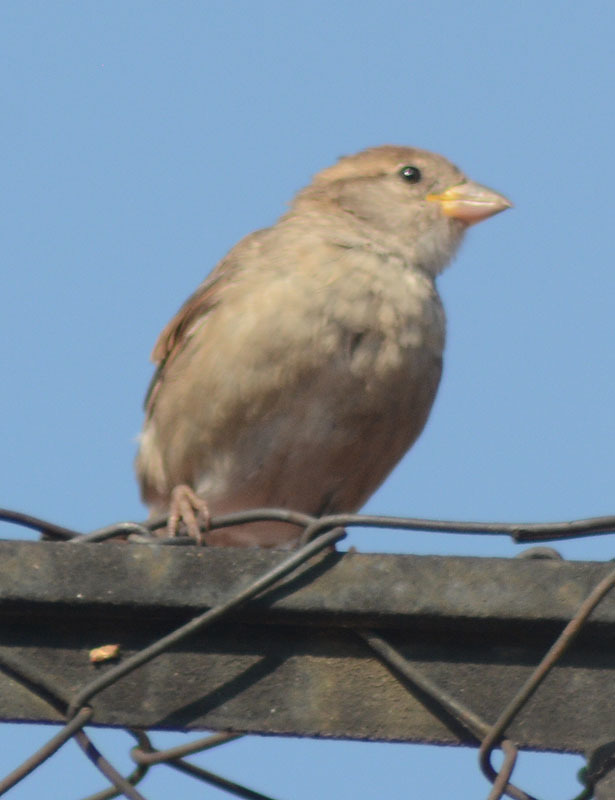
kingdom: Animalia
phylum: Chordata
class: Aves
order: Passeriformes
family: Passeridae
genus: Passer
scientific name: Passer domesticus
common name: House sparrow
